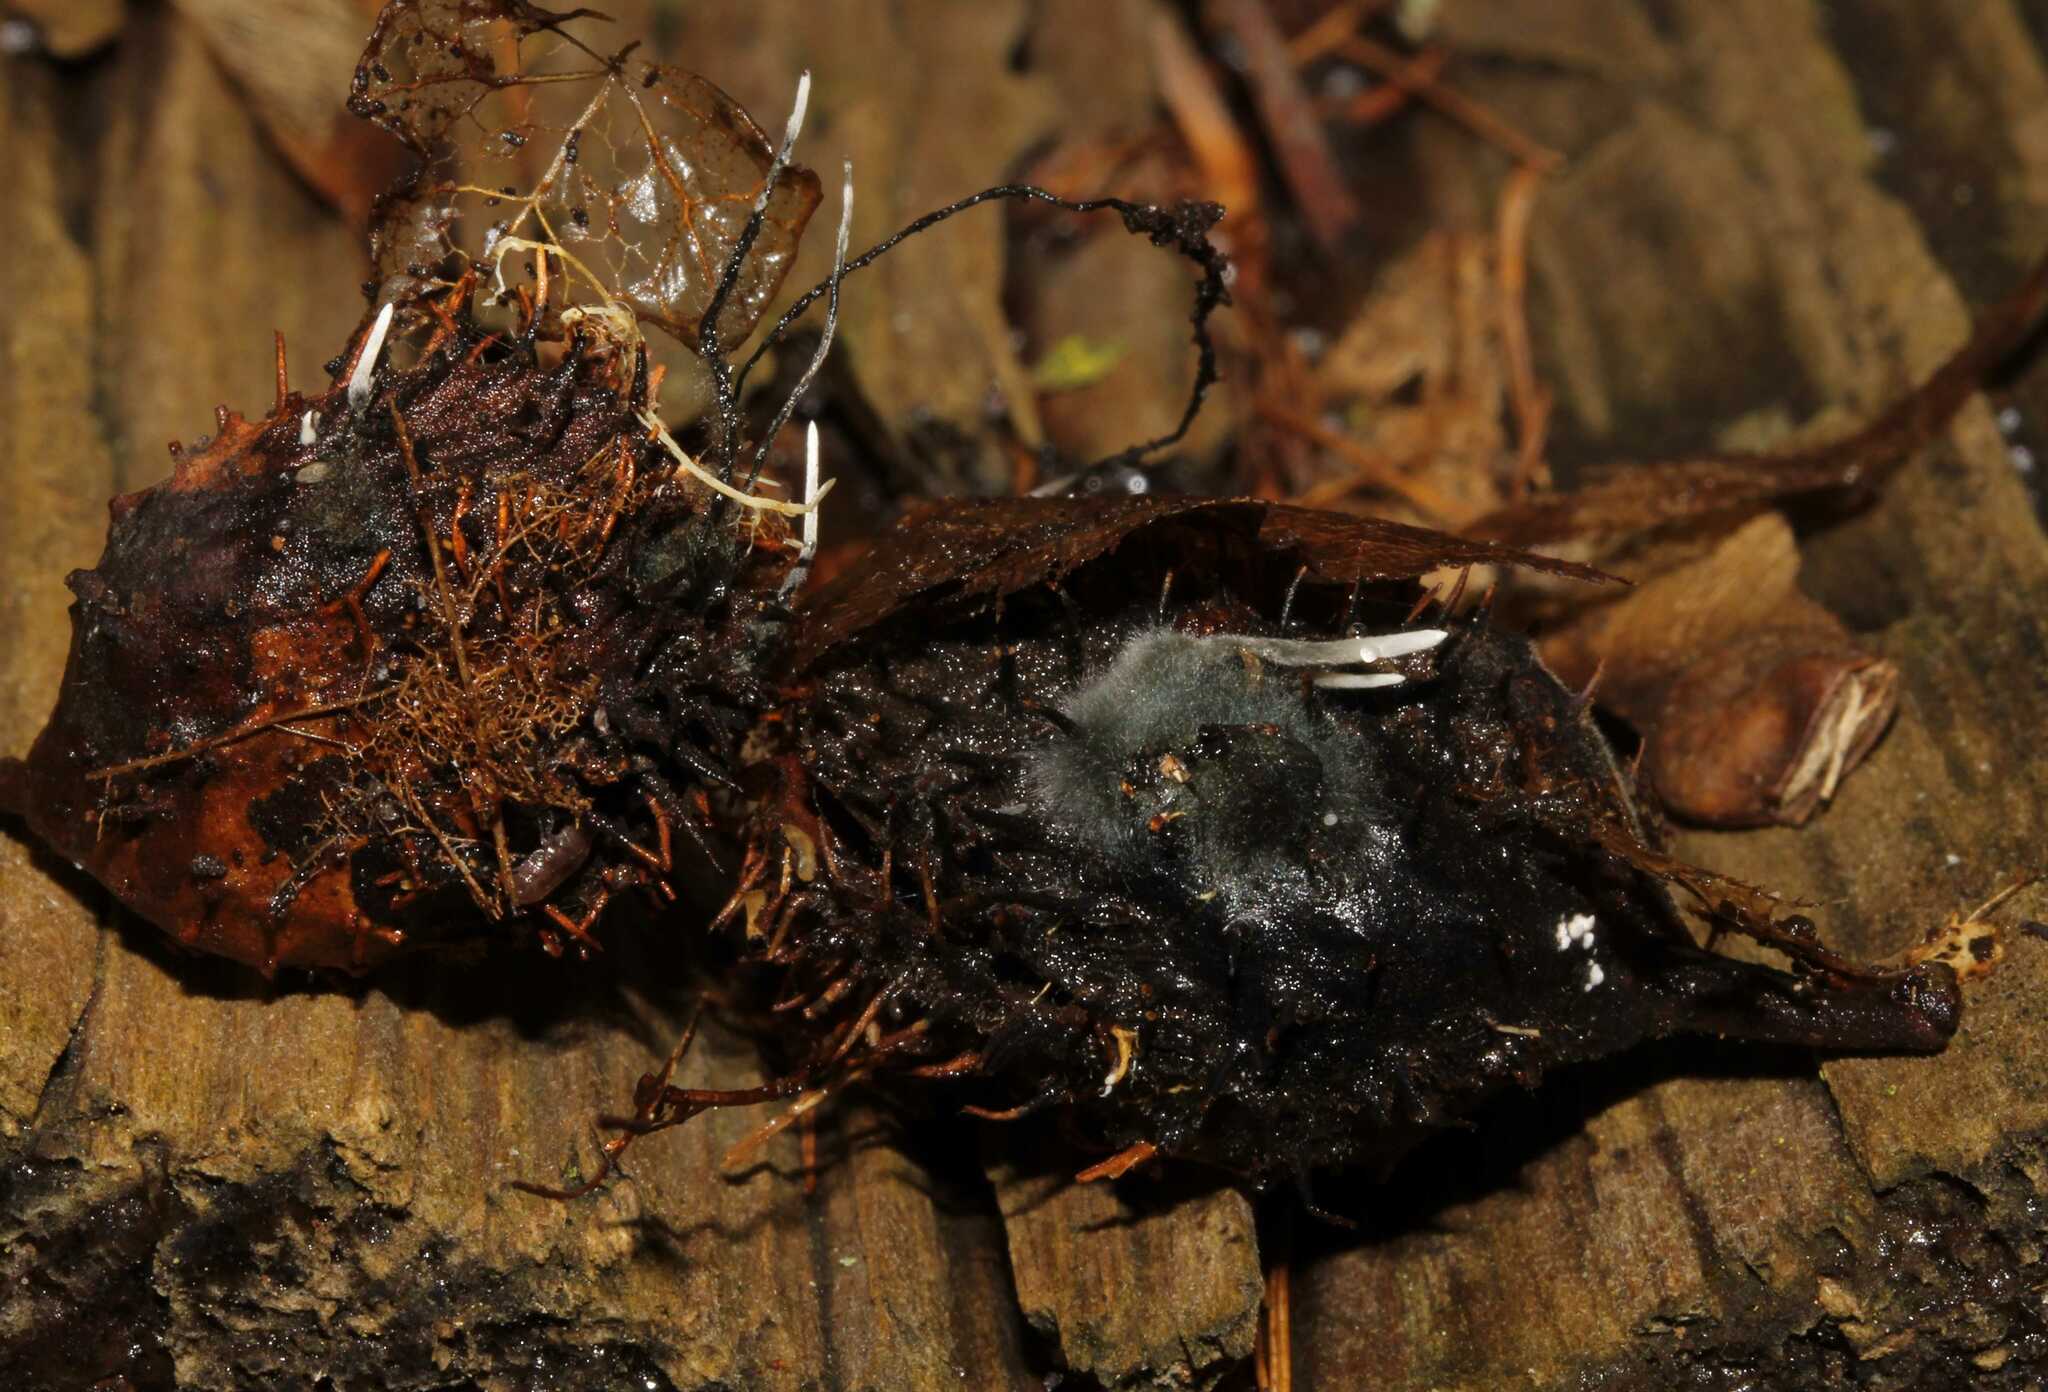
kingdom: Fungi
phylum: Ascomycota
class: Sordariomycetes
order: Xylariales
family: Xylariaceae
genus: Xylaria
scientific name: Xylaria carpophila
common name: Beechmast candlesnuff
